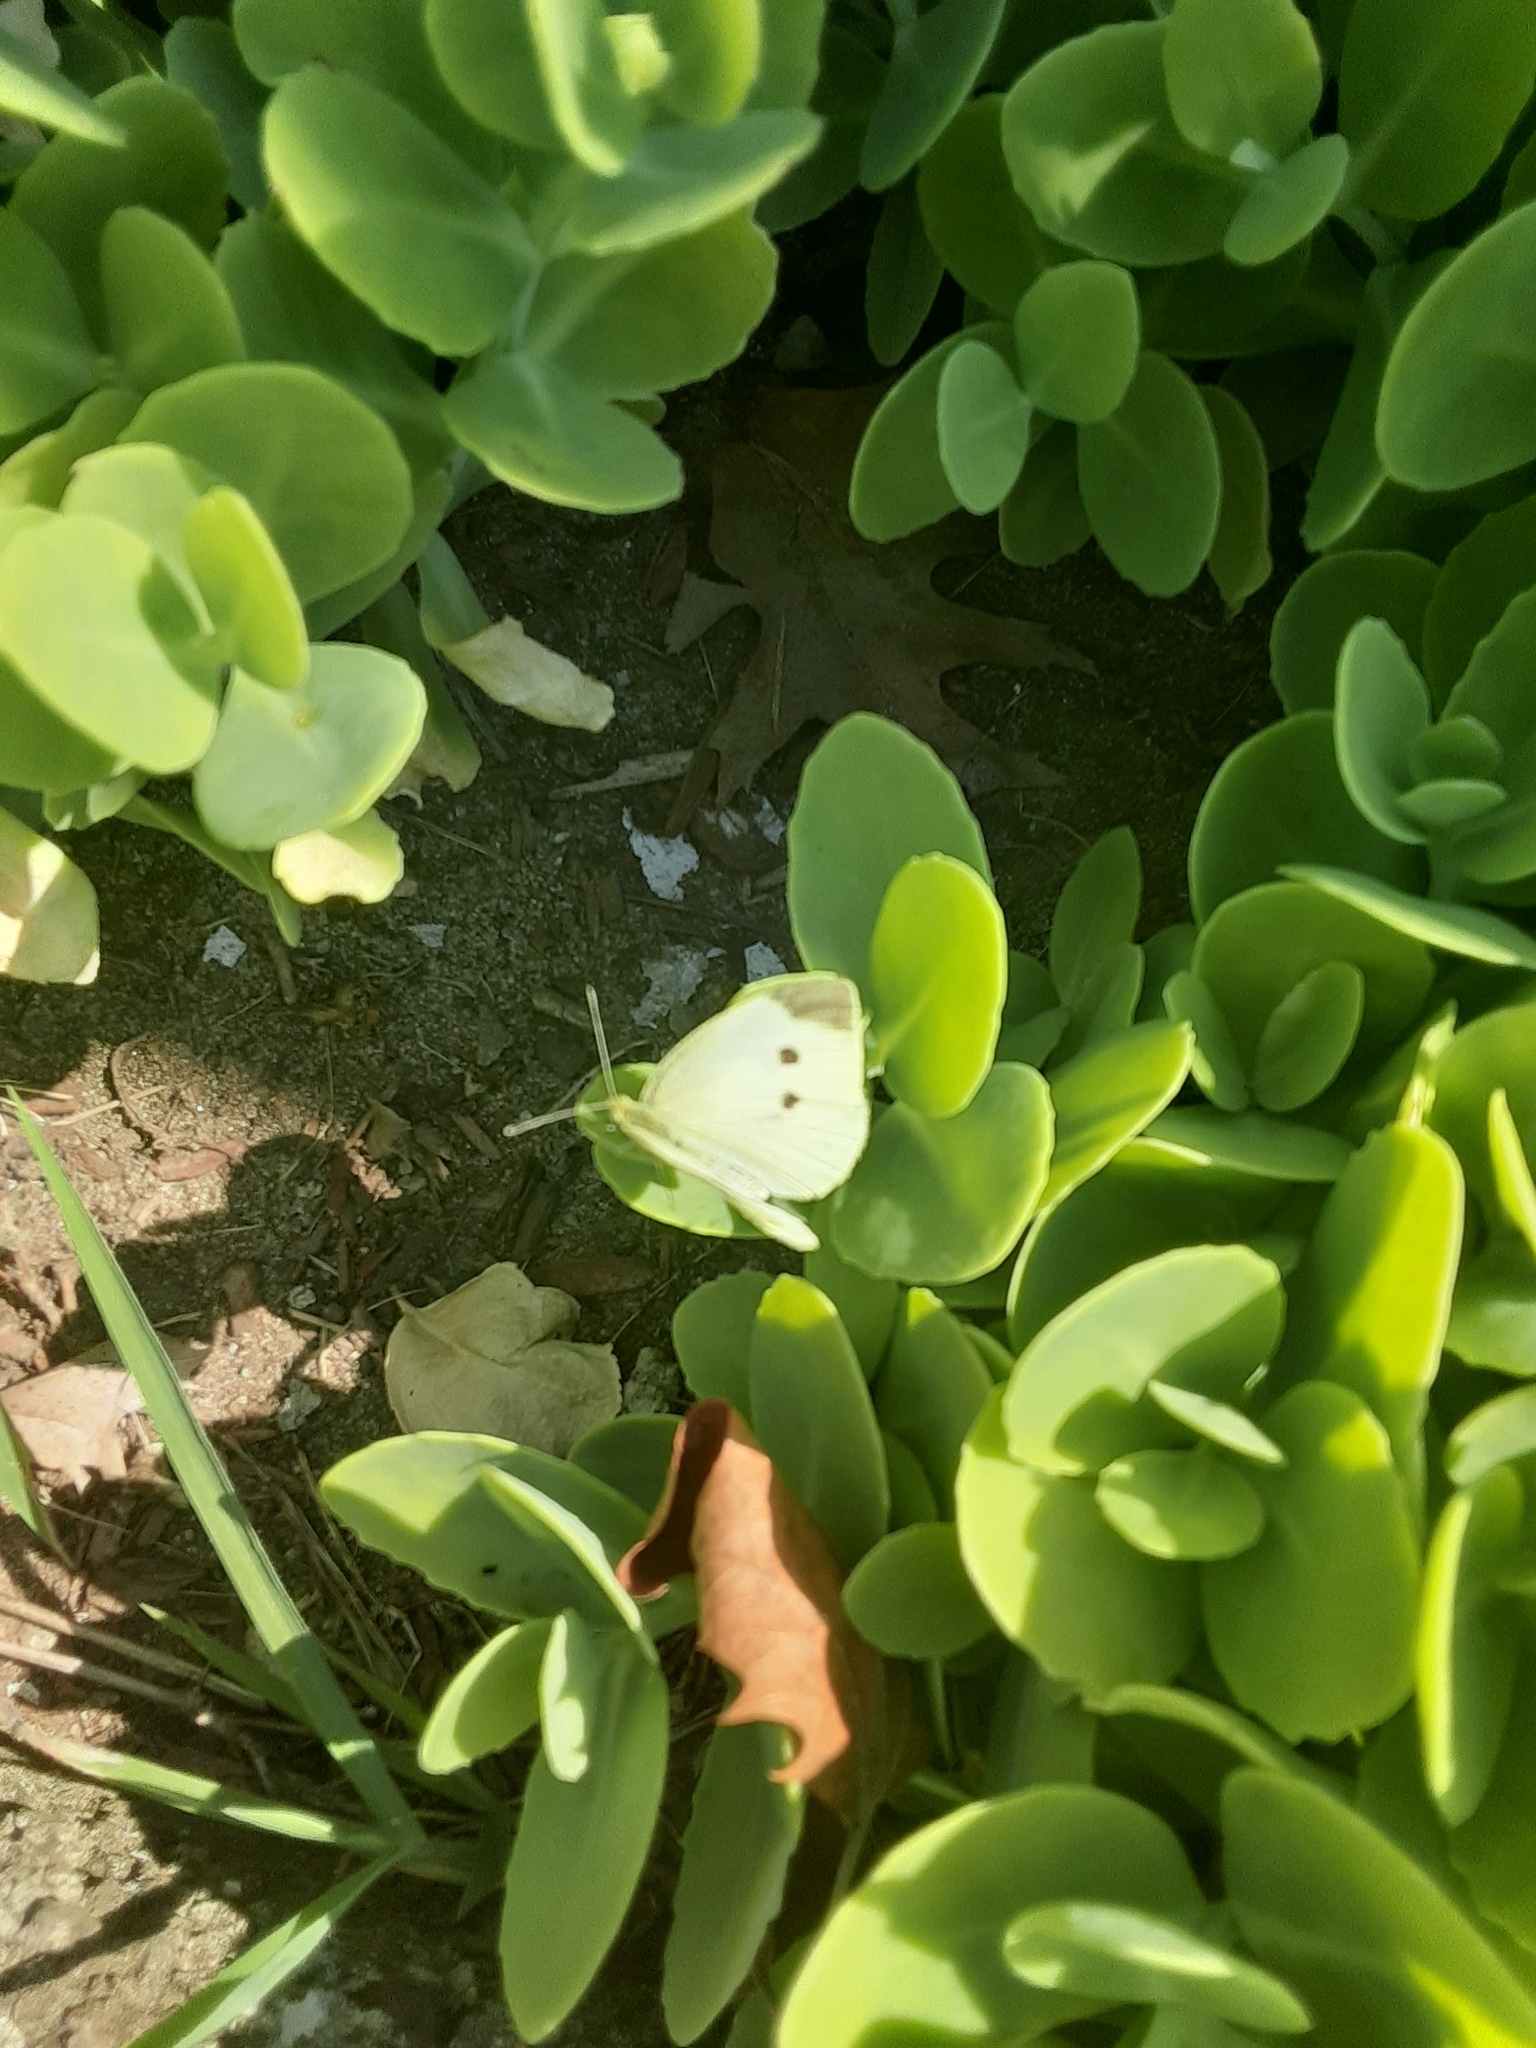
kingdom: Animalia
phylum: Arthropoda
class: Insecta
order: Lepidoptera
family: Pieridae
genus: Pieris
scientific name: Pieris rapae
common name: Small white
